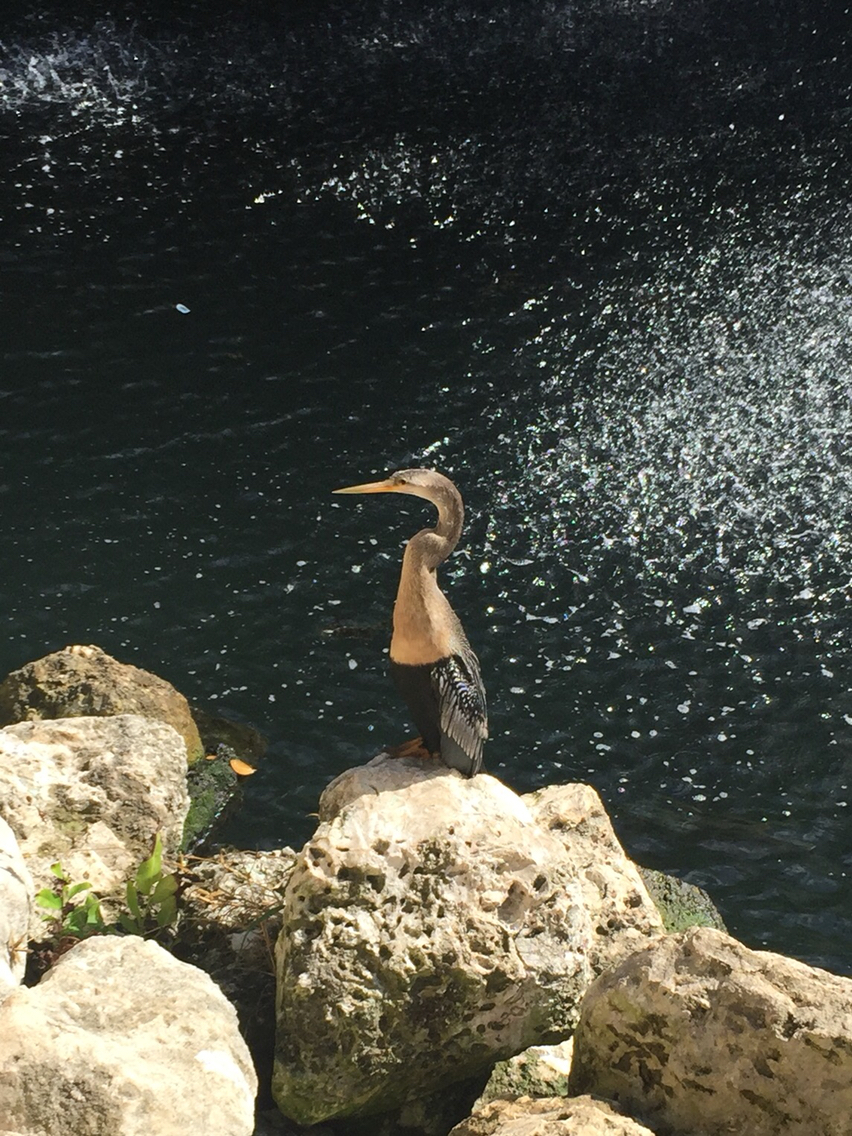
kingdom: Animalia
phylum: Chordata
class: Aves
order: Suliformes
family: Anhingidae
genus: Anhinga
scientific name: Anhinga anhinga
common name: Anhinga
